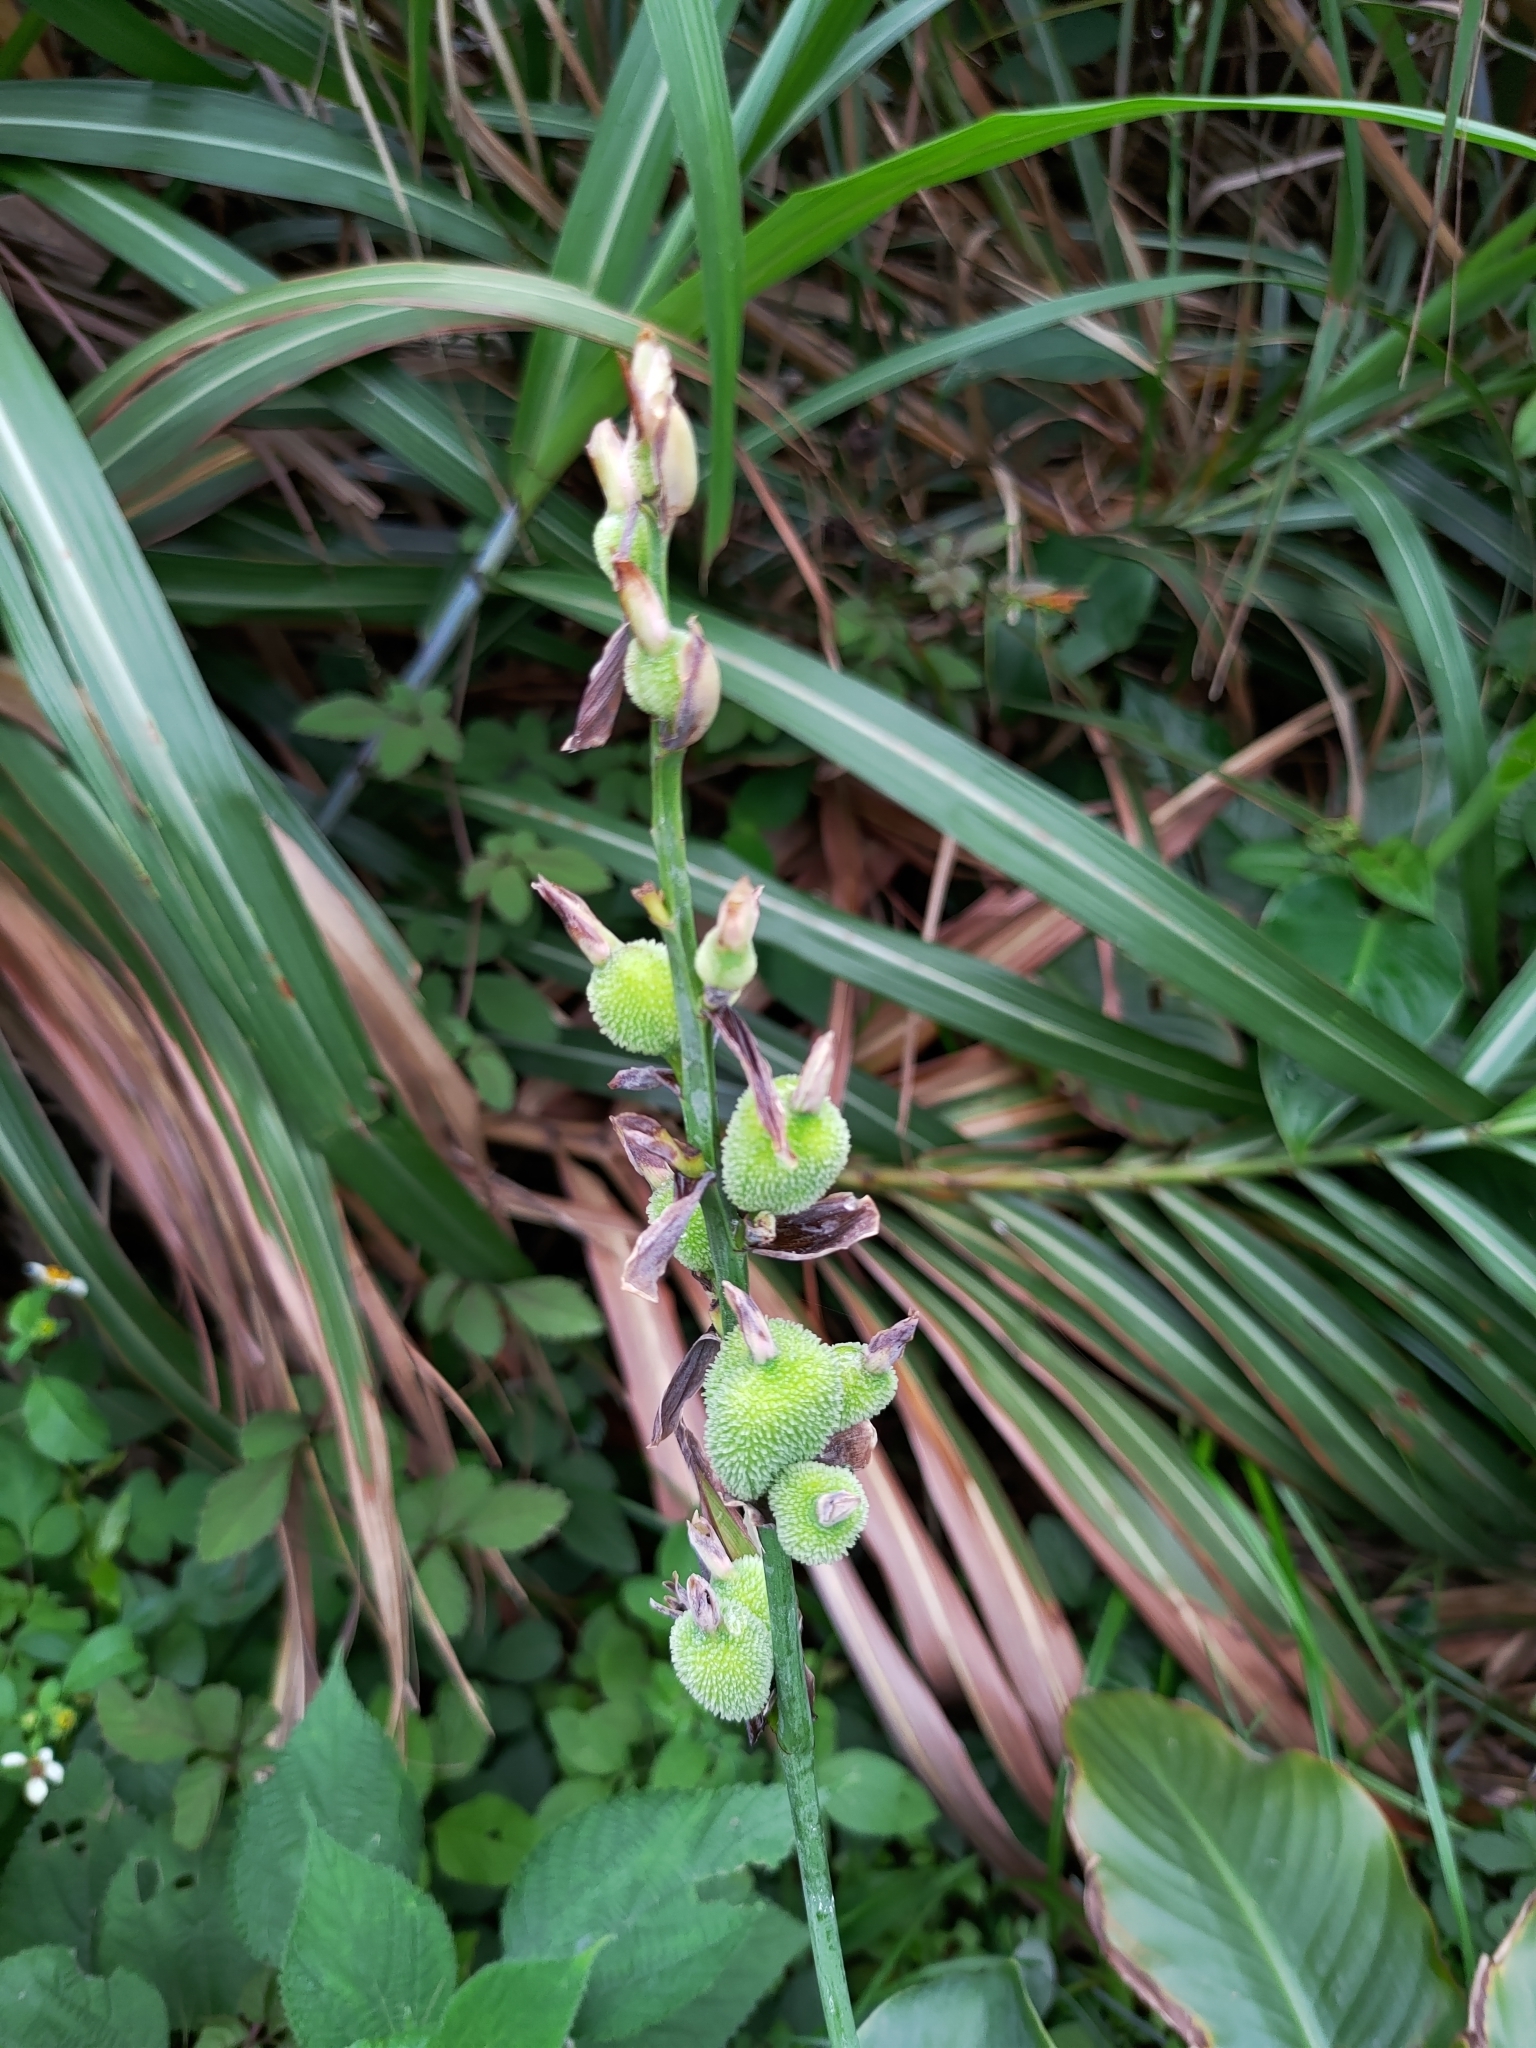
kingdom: Plantae
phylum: Tracheophyta
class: Liliopsida
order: Zingiberales
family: Cannaceae
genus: Canna
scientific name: Canna indica
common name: Indian shot
